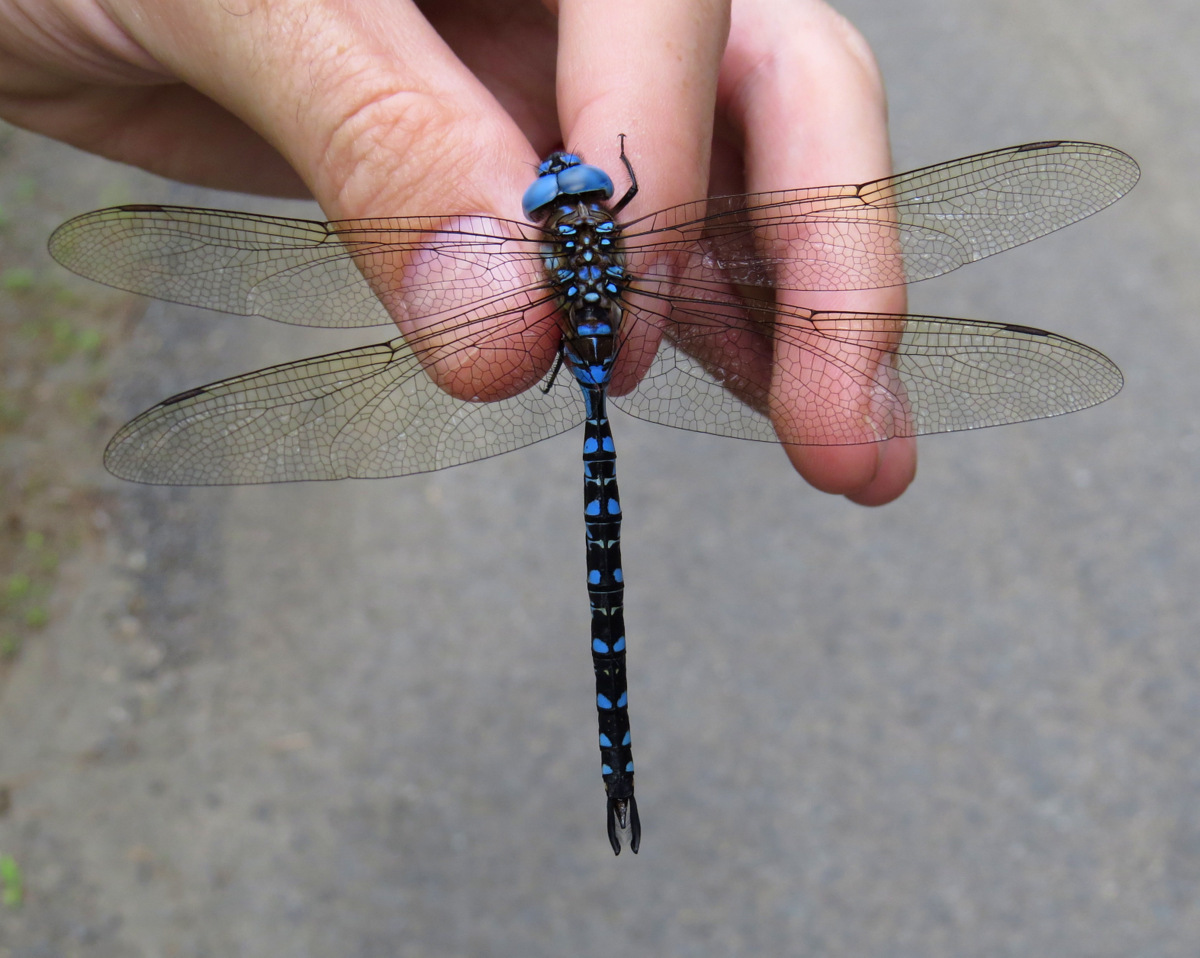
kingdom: Animalia
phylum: Arthropoda
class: Insecta
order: Odonata
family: Aeshnidae
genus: Rhionaeschna
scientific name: Rhionaeschna mutata
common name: Spatterdock darner
